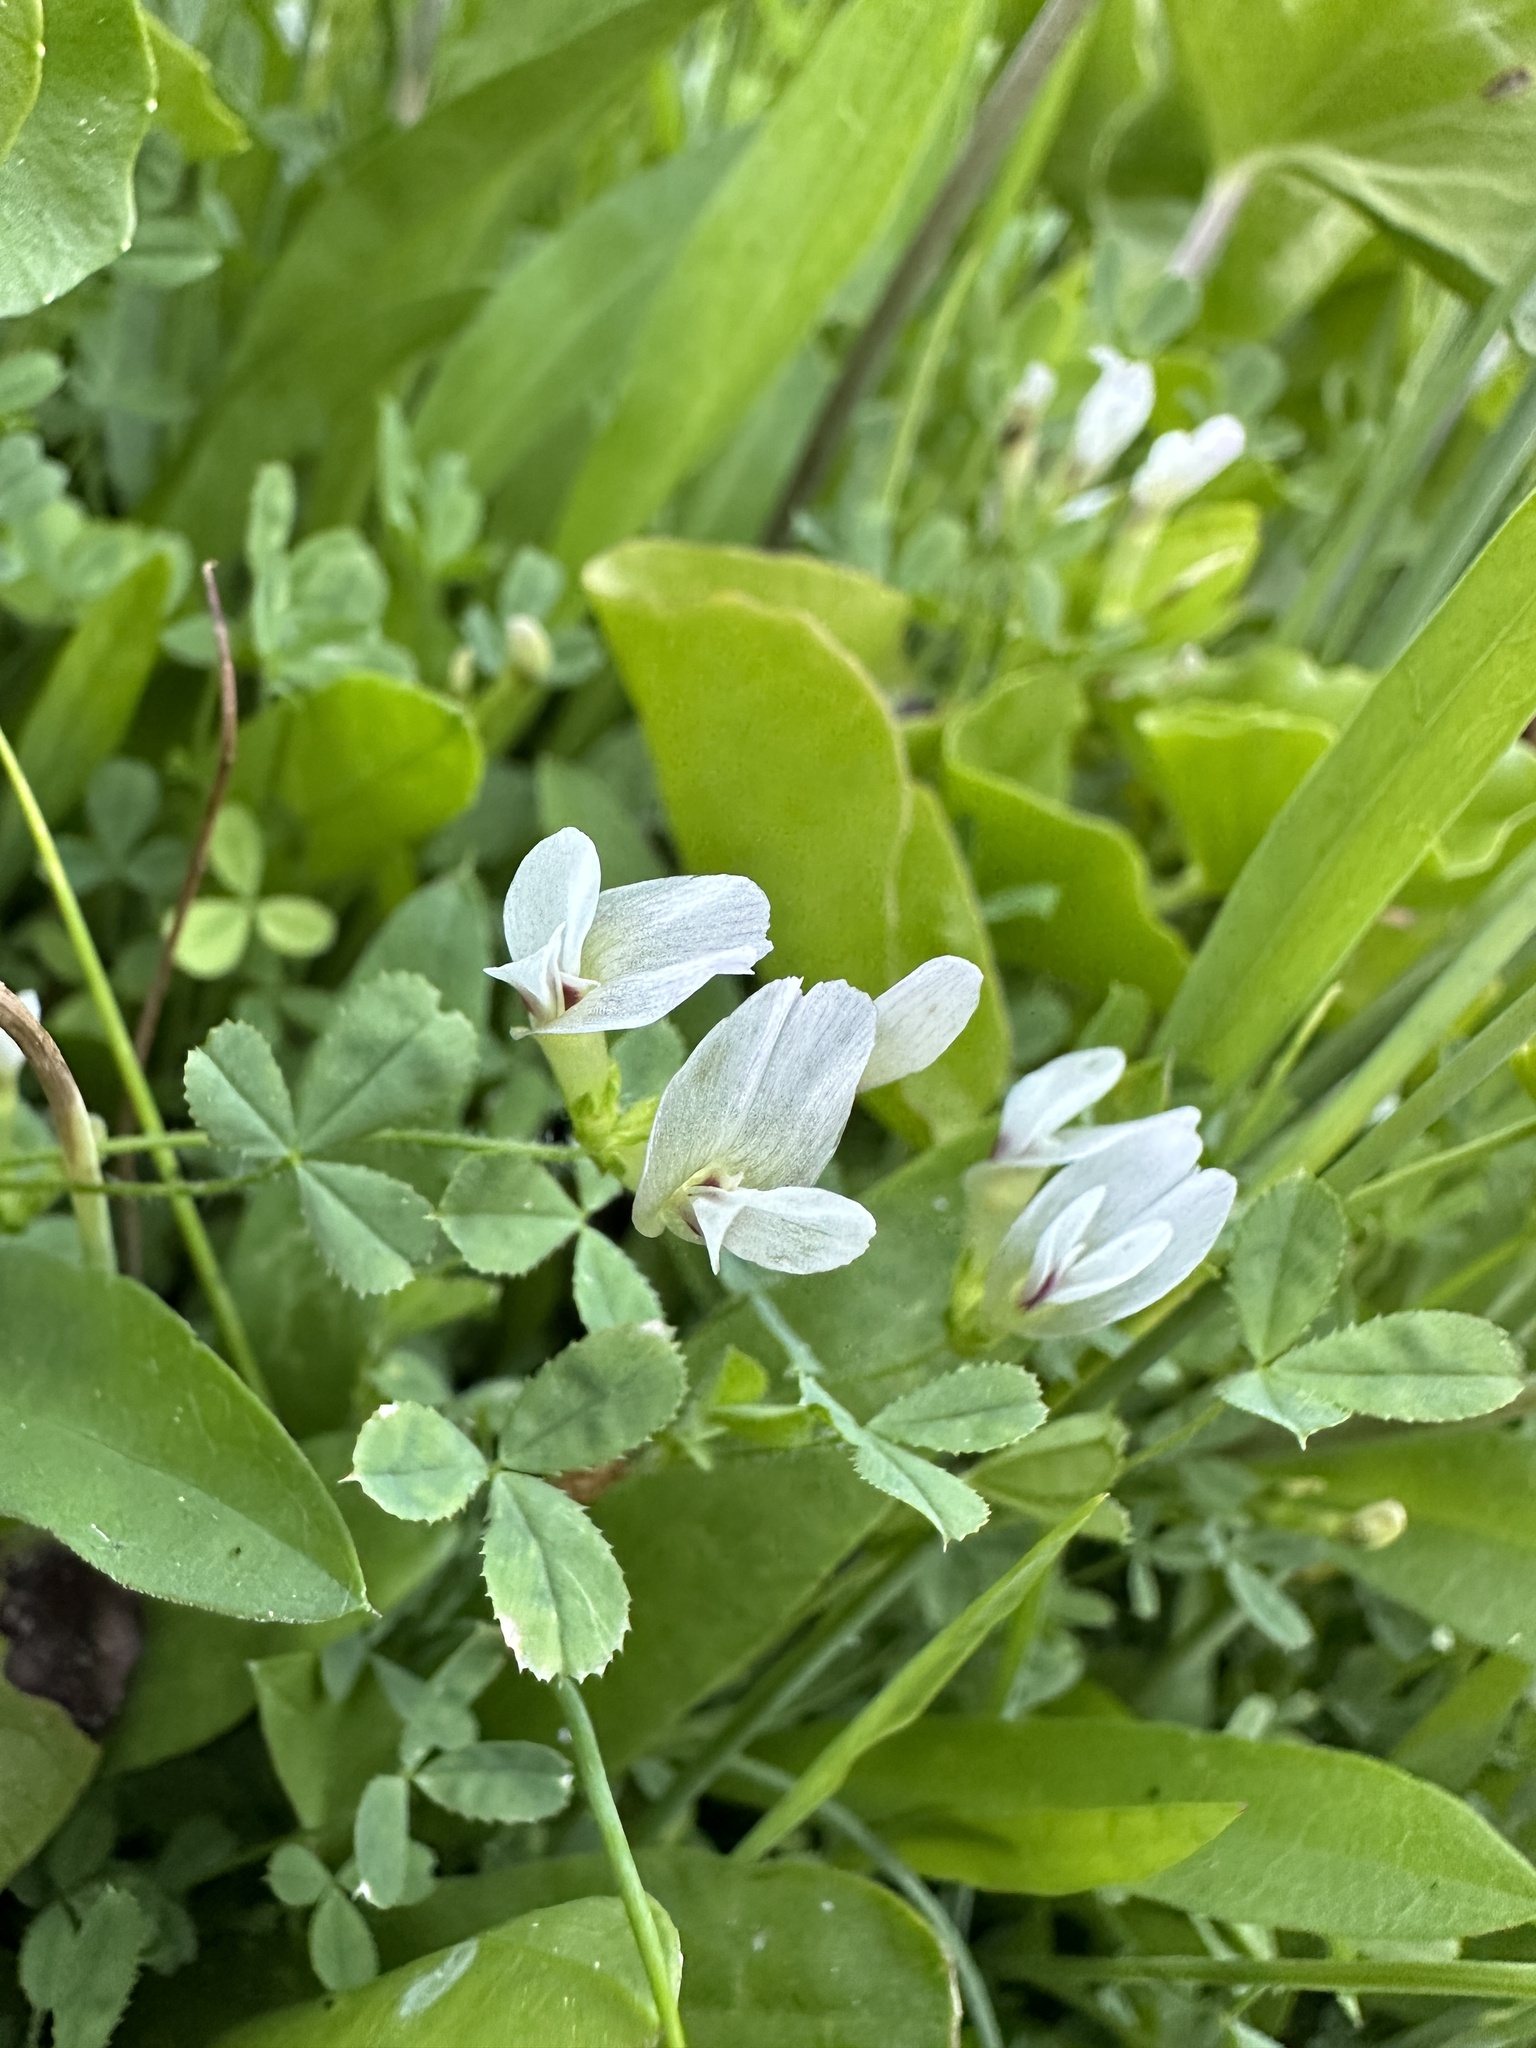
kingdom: Plantae
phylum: Tracheophyta
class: Magnoliopsida
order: Fabales
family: Fabaceae
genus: Trifolium
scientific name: Trifolium monanthum
